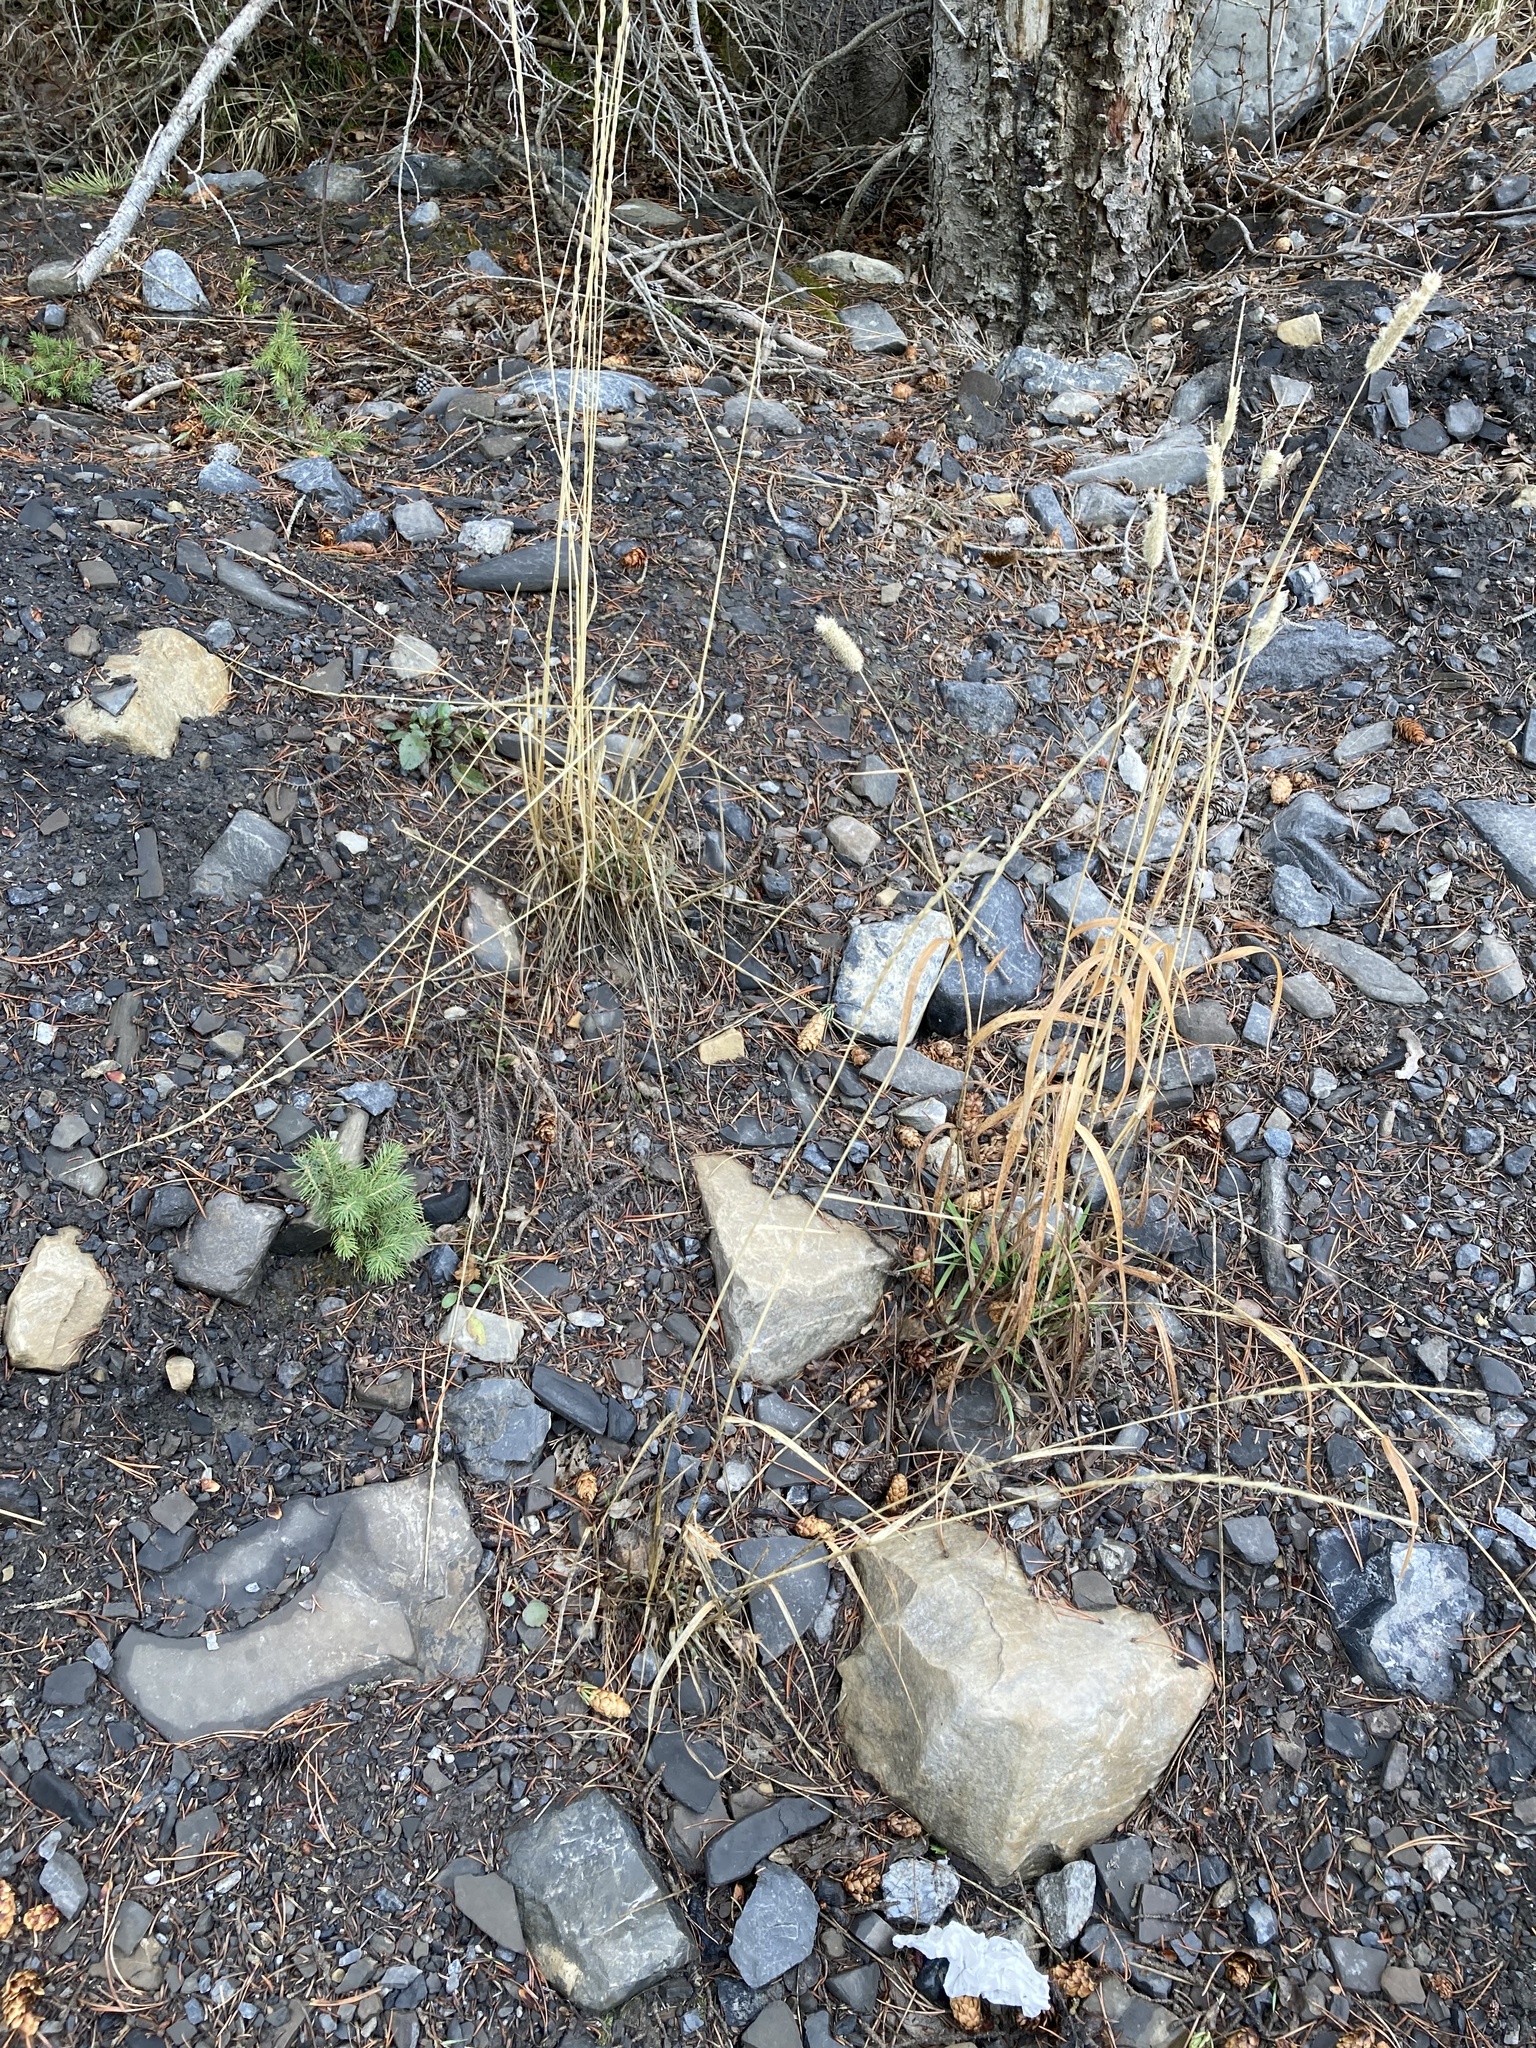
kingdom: Plantae
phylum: Tracheophyta
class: Liliopsida
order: Poales
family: Poaceae
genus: Elymus
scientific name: Elymus violaceus
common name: Arctic wheatgrass
